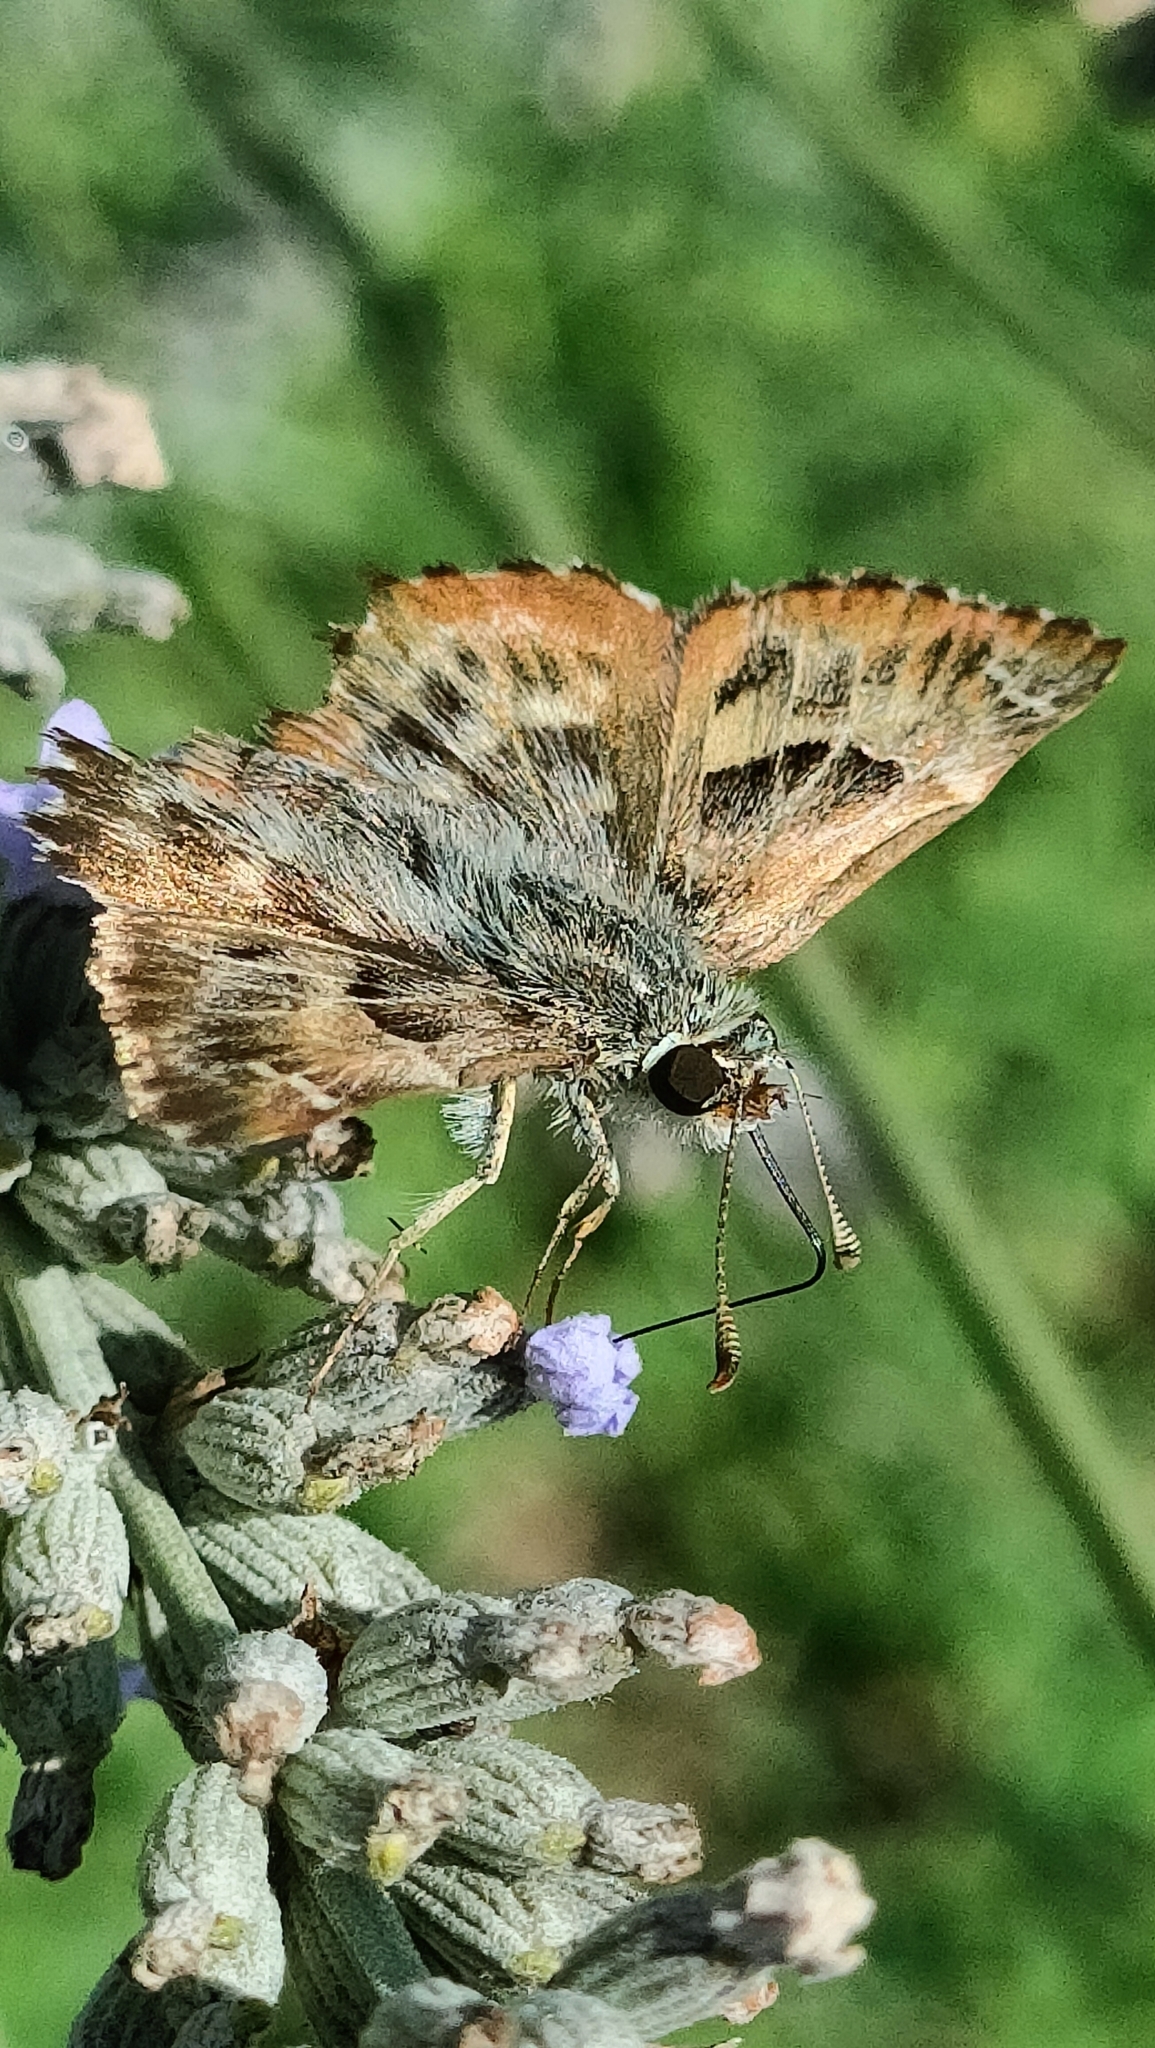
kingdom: Animalia
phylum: Arthropoda
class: Insecta
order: Lepidoptera
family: Hesperiidae
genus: Carcharodus
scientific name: Carcharodus alceae
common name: Mallow skipper
